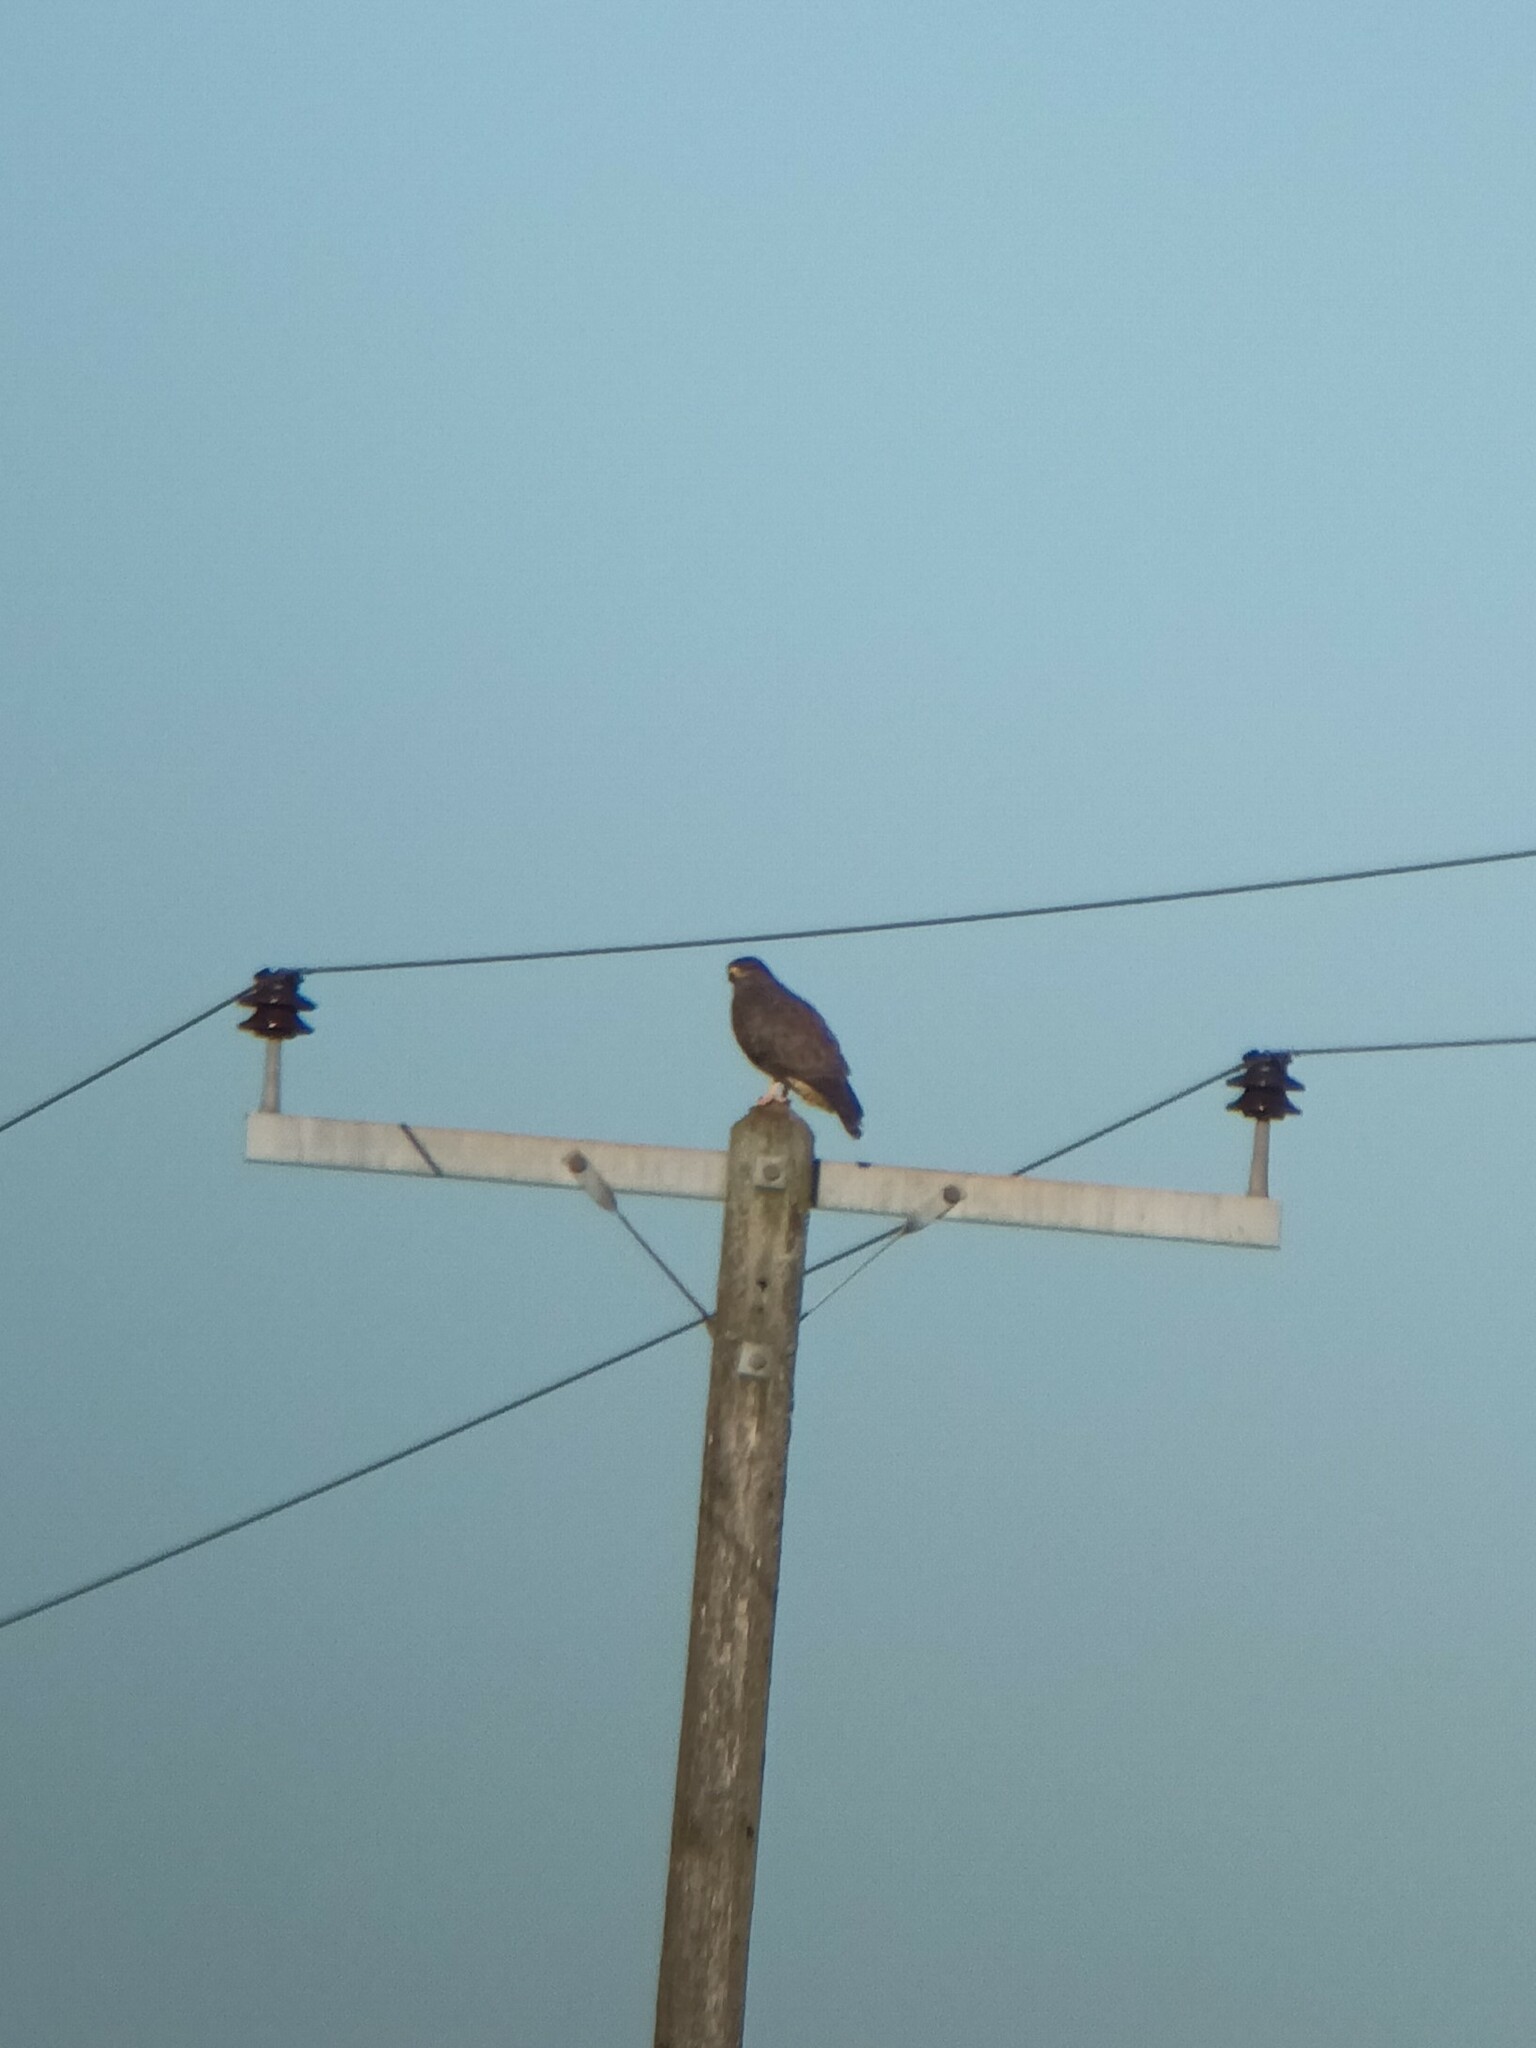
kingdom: Animalia
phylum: Chordata
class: Aves
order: Accipitriformes
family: Accipitridae
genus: Buteo
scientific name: Buteo buteo
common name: Common buzzard
